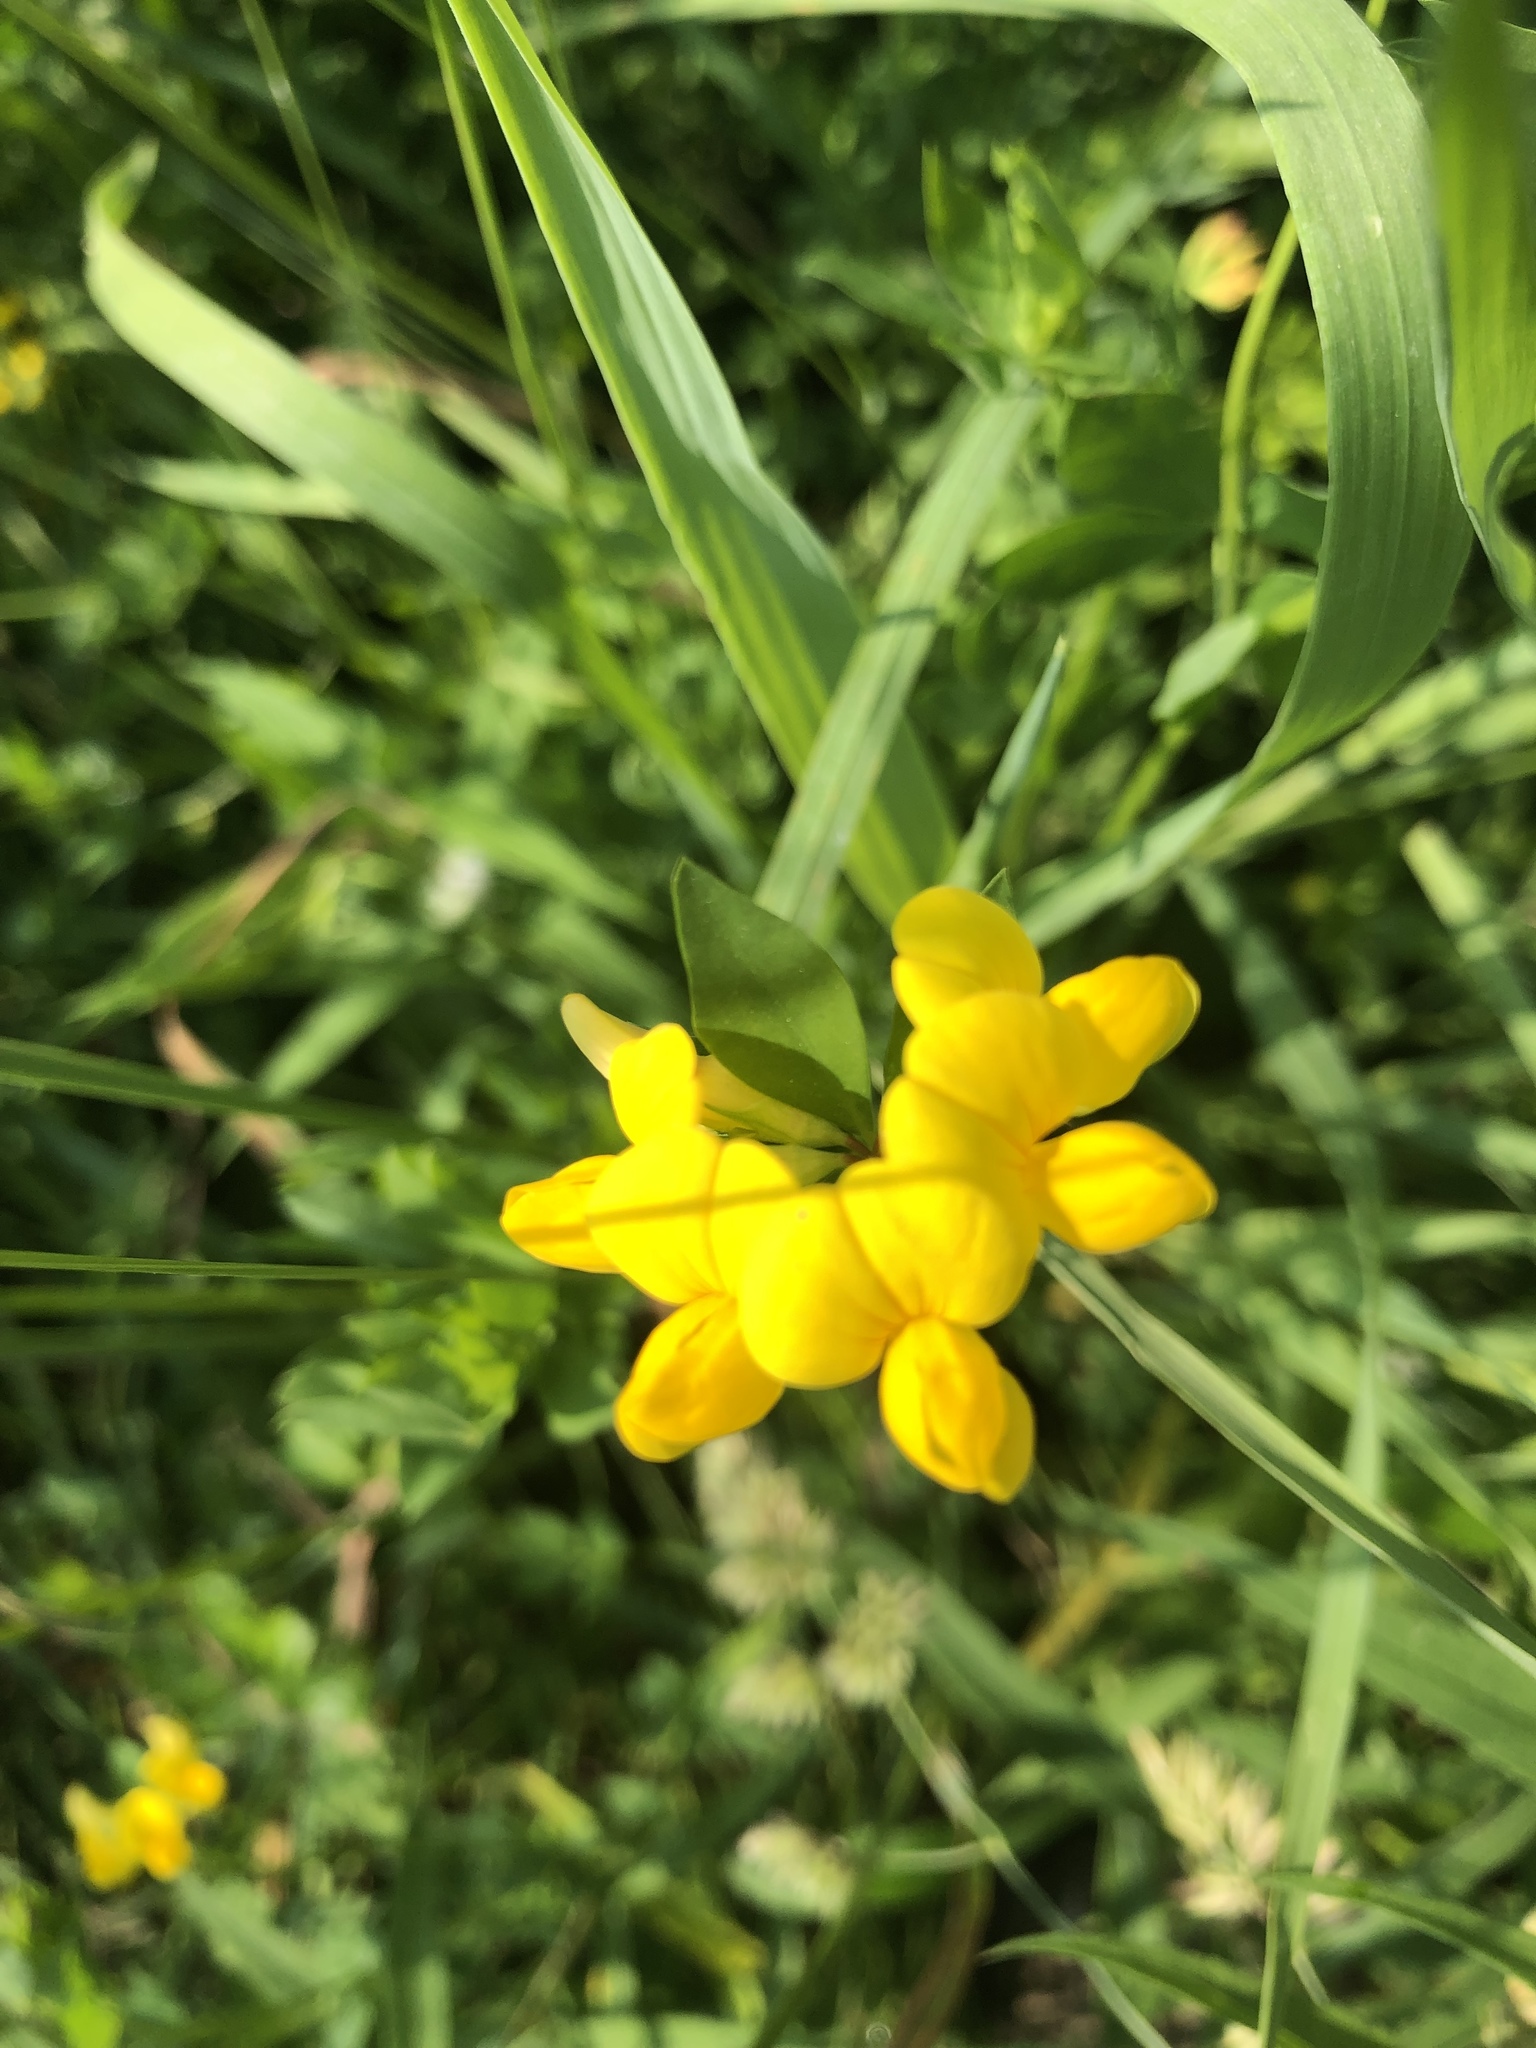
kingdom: Plantae
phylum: Tracheophyta
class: Magnoliopsida
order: Fabales
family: Fabaceae
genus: Lotus
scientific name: Lotus corniculatus
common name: Common bird's-foot-trefoil
